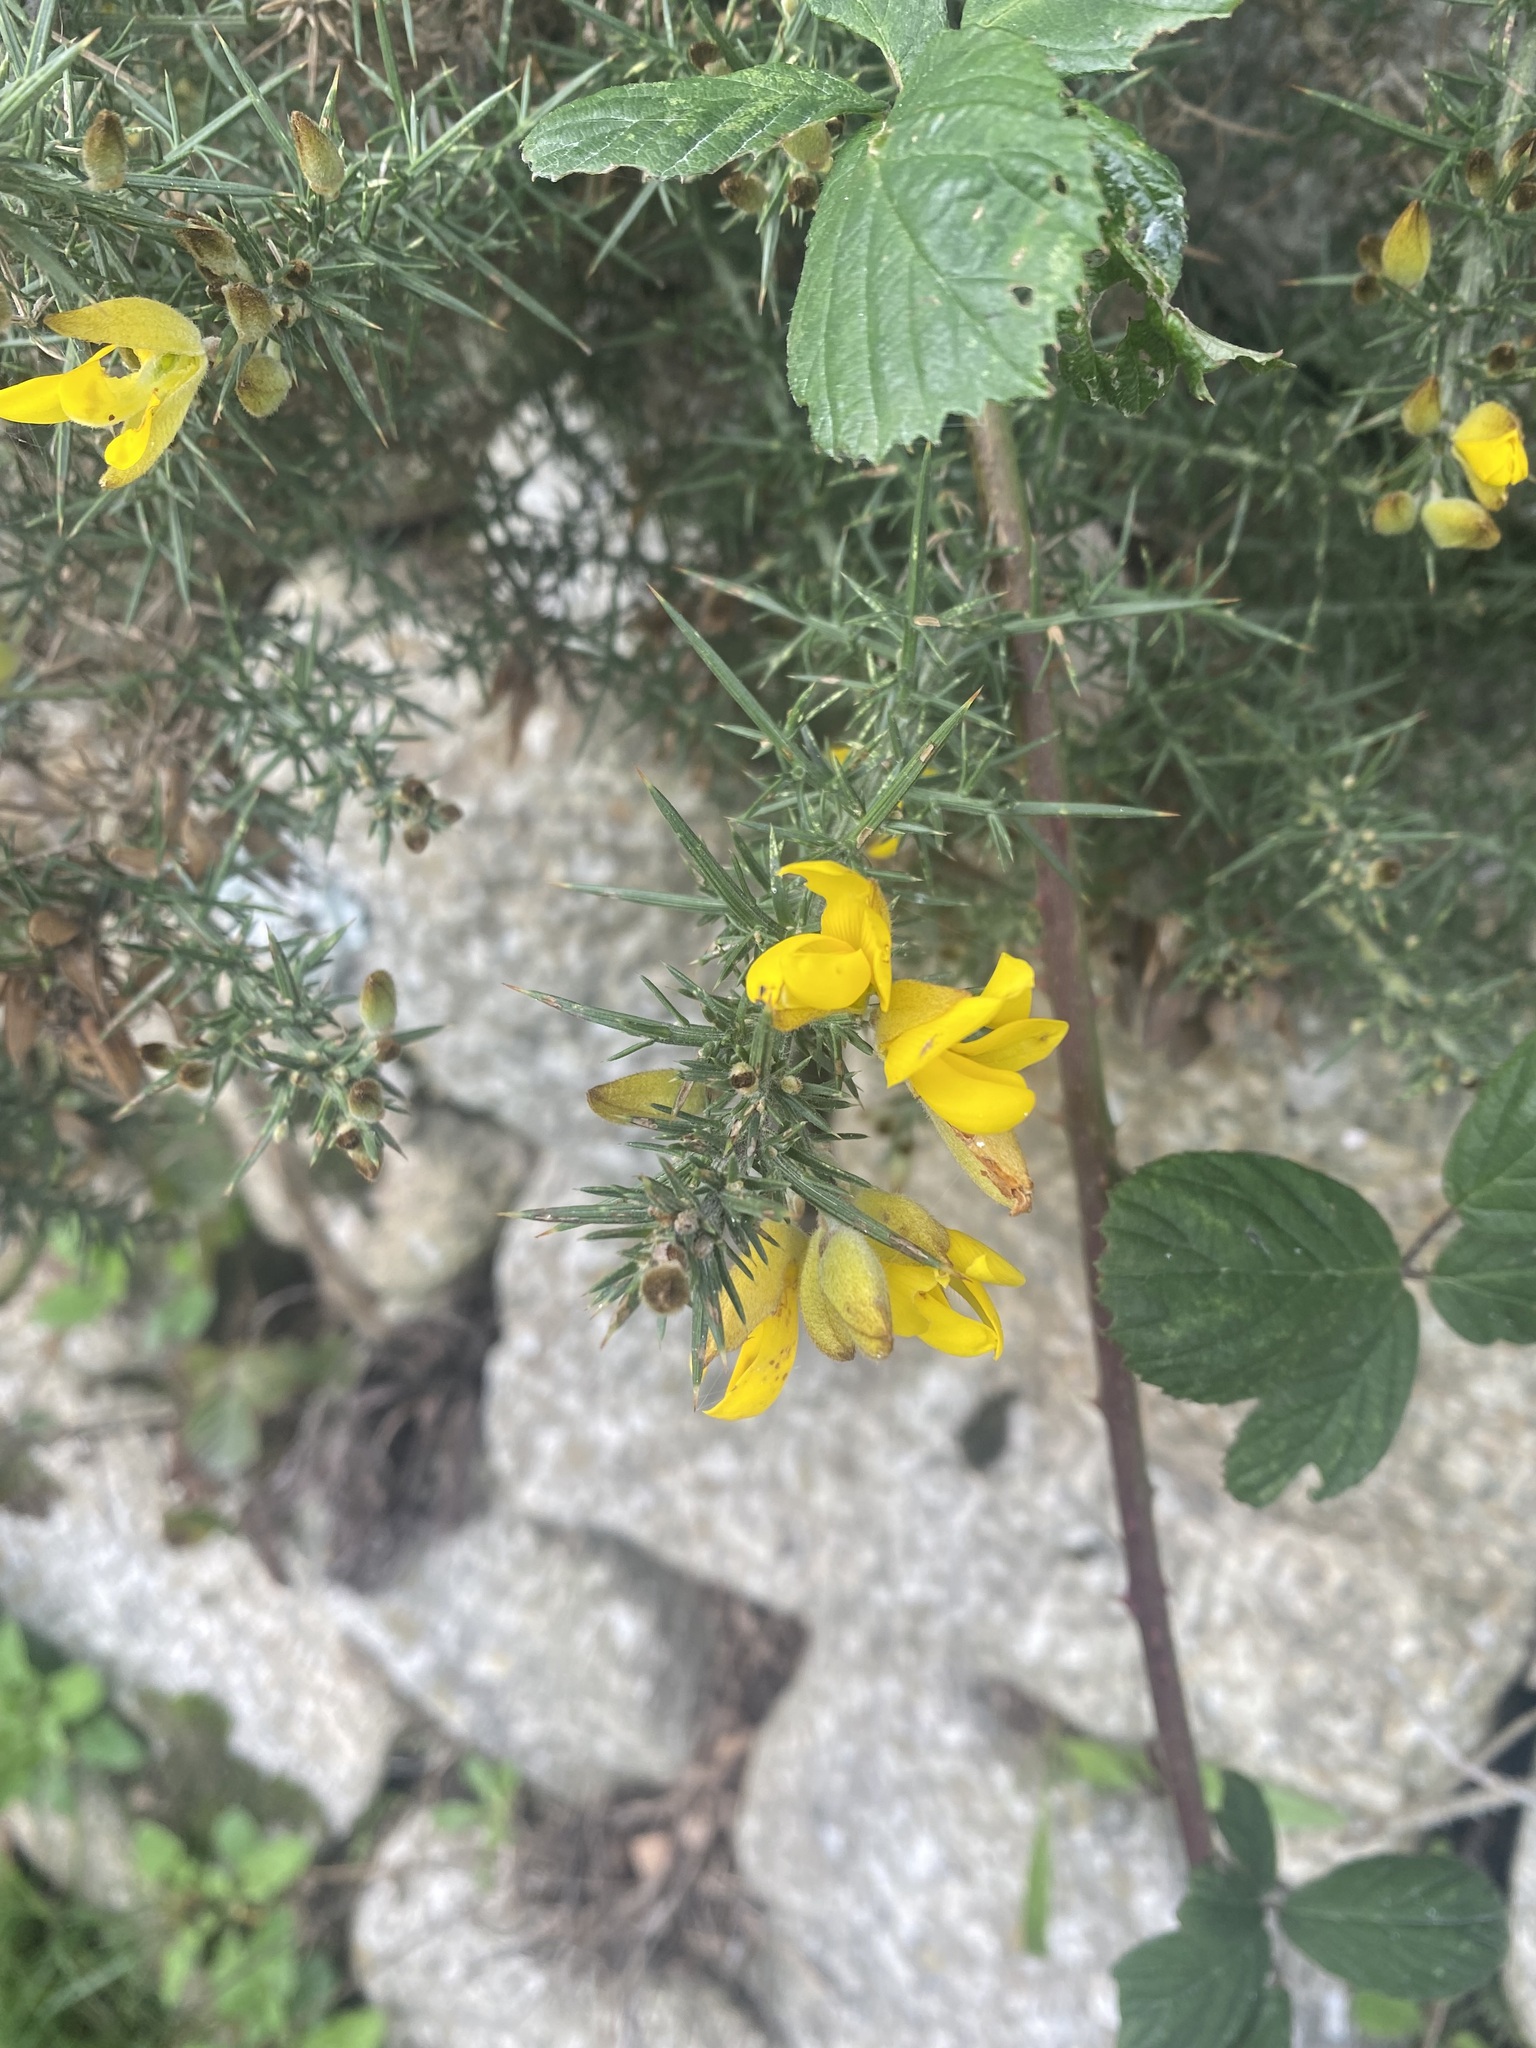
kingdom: Plantae
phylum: Tracheophyta
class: Magnoliopsida
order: Fabales
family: Fabaceae
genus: Ulex
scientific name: Ulex europaeus
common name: Common gorse
